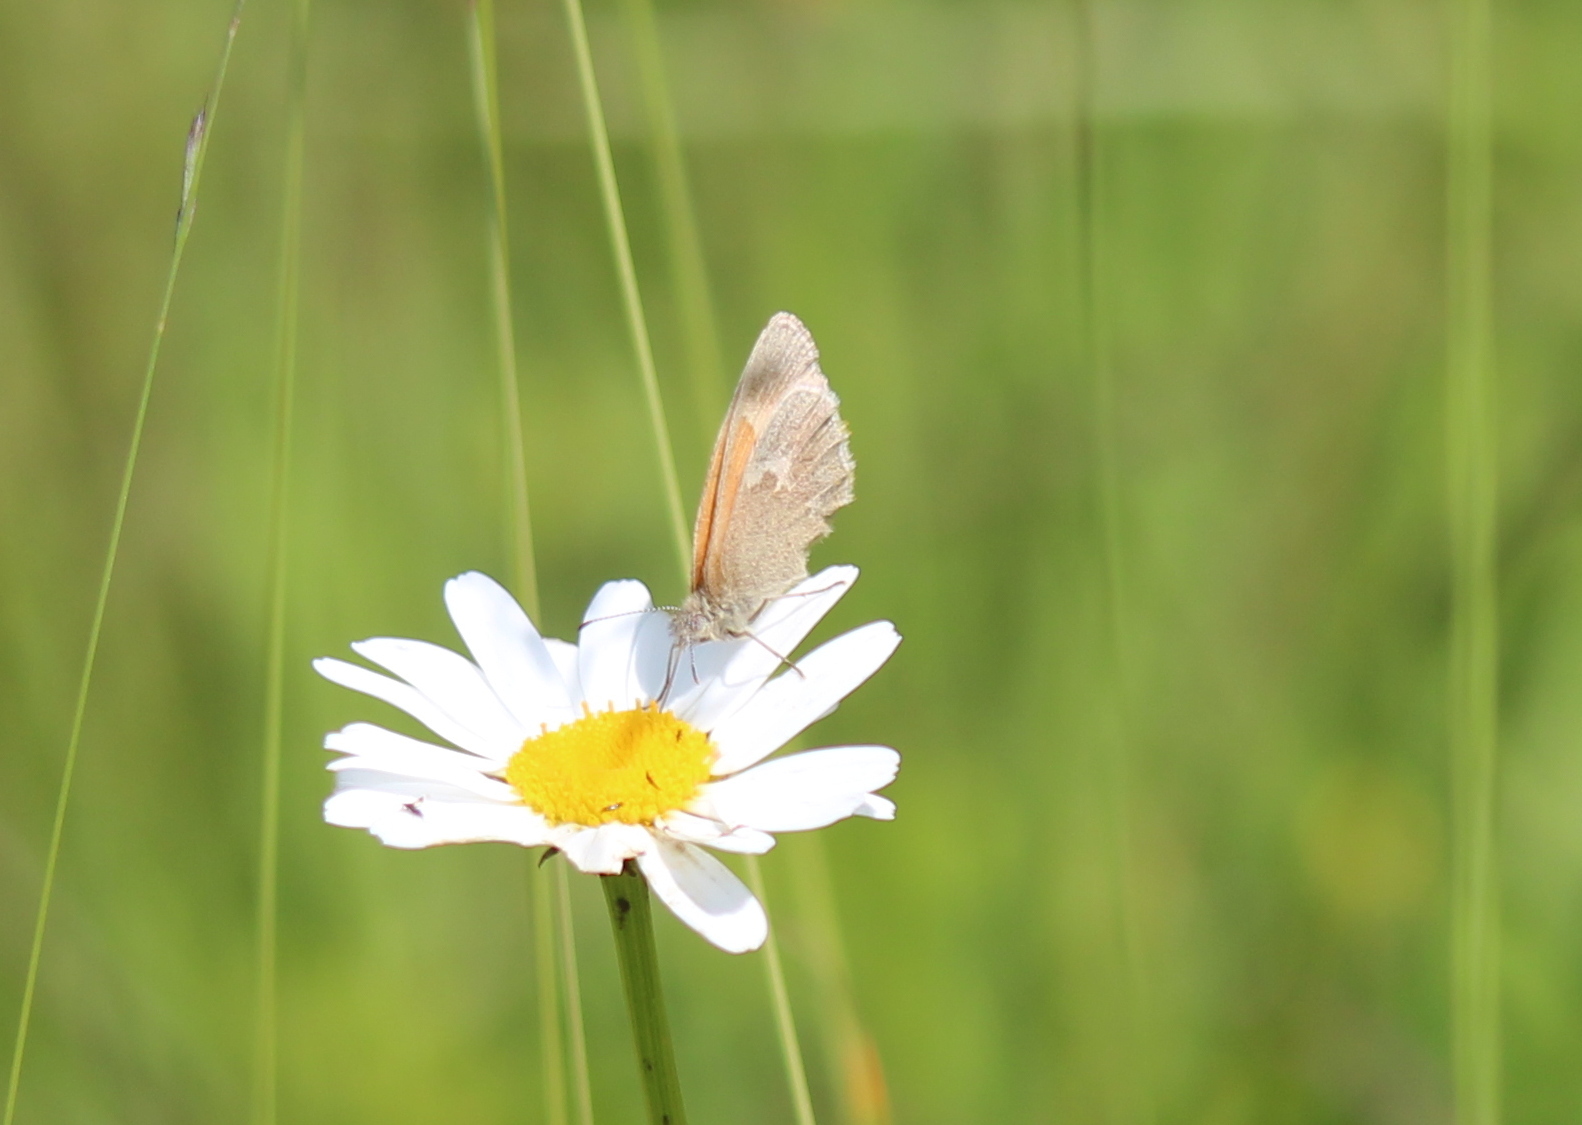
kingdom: Animalia
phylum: Arthropoda
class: Insecta
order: Lepidoptera
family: Nymphalidae
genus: Coenonympha
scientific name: Coenonympha california
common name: Common ringlet
